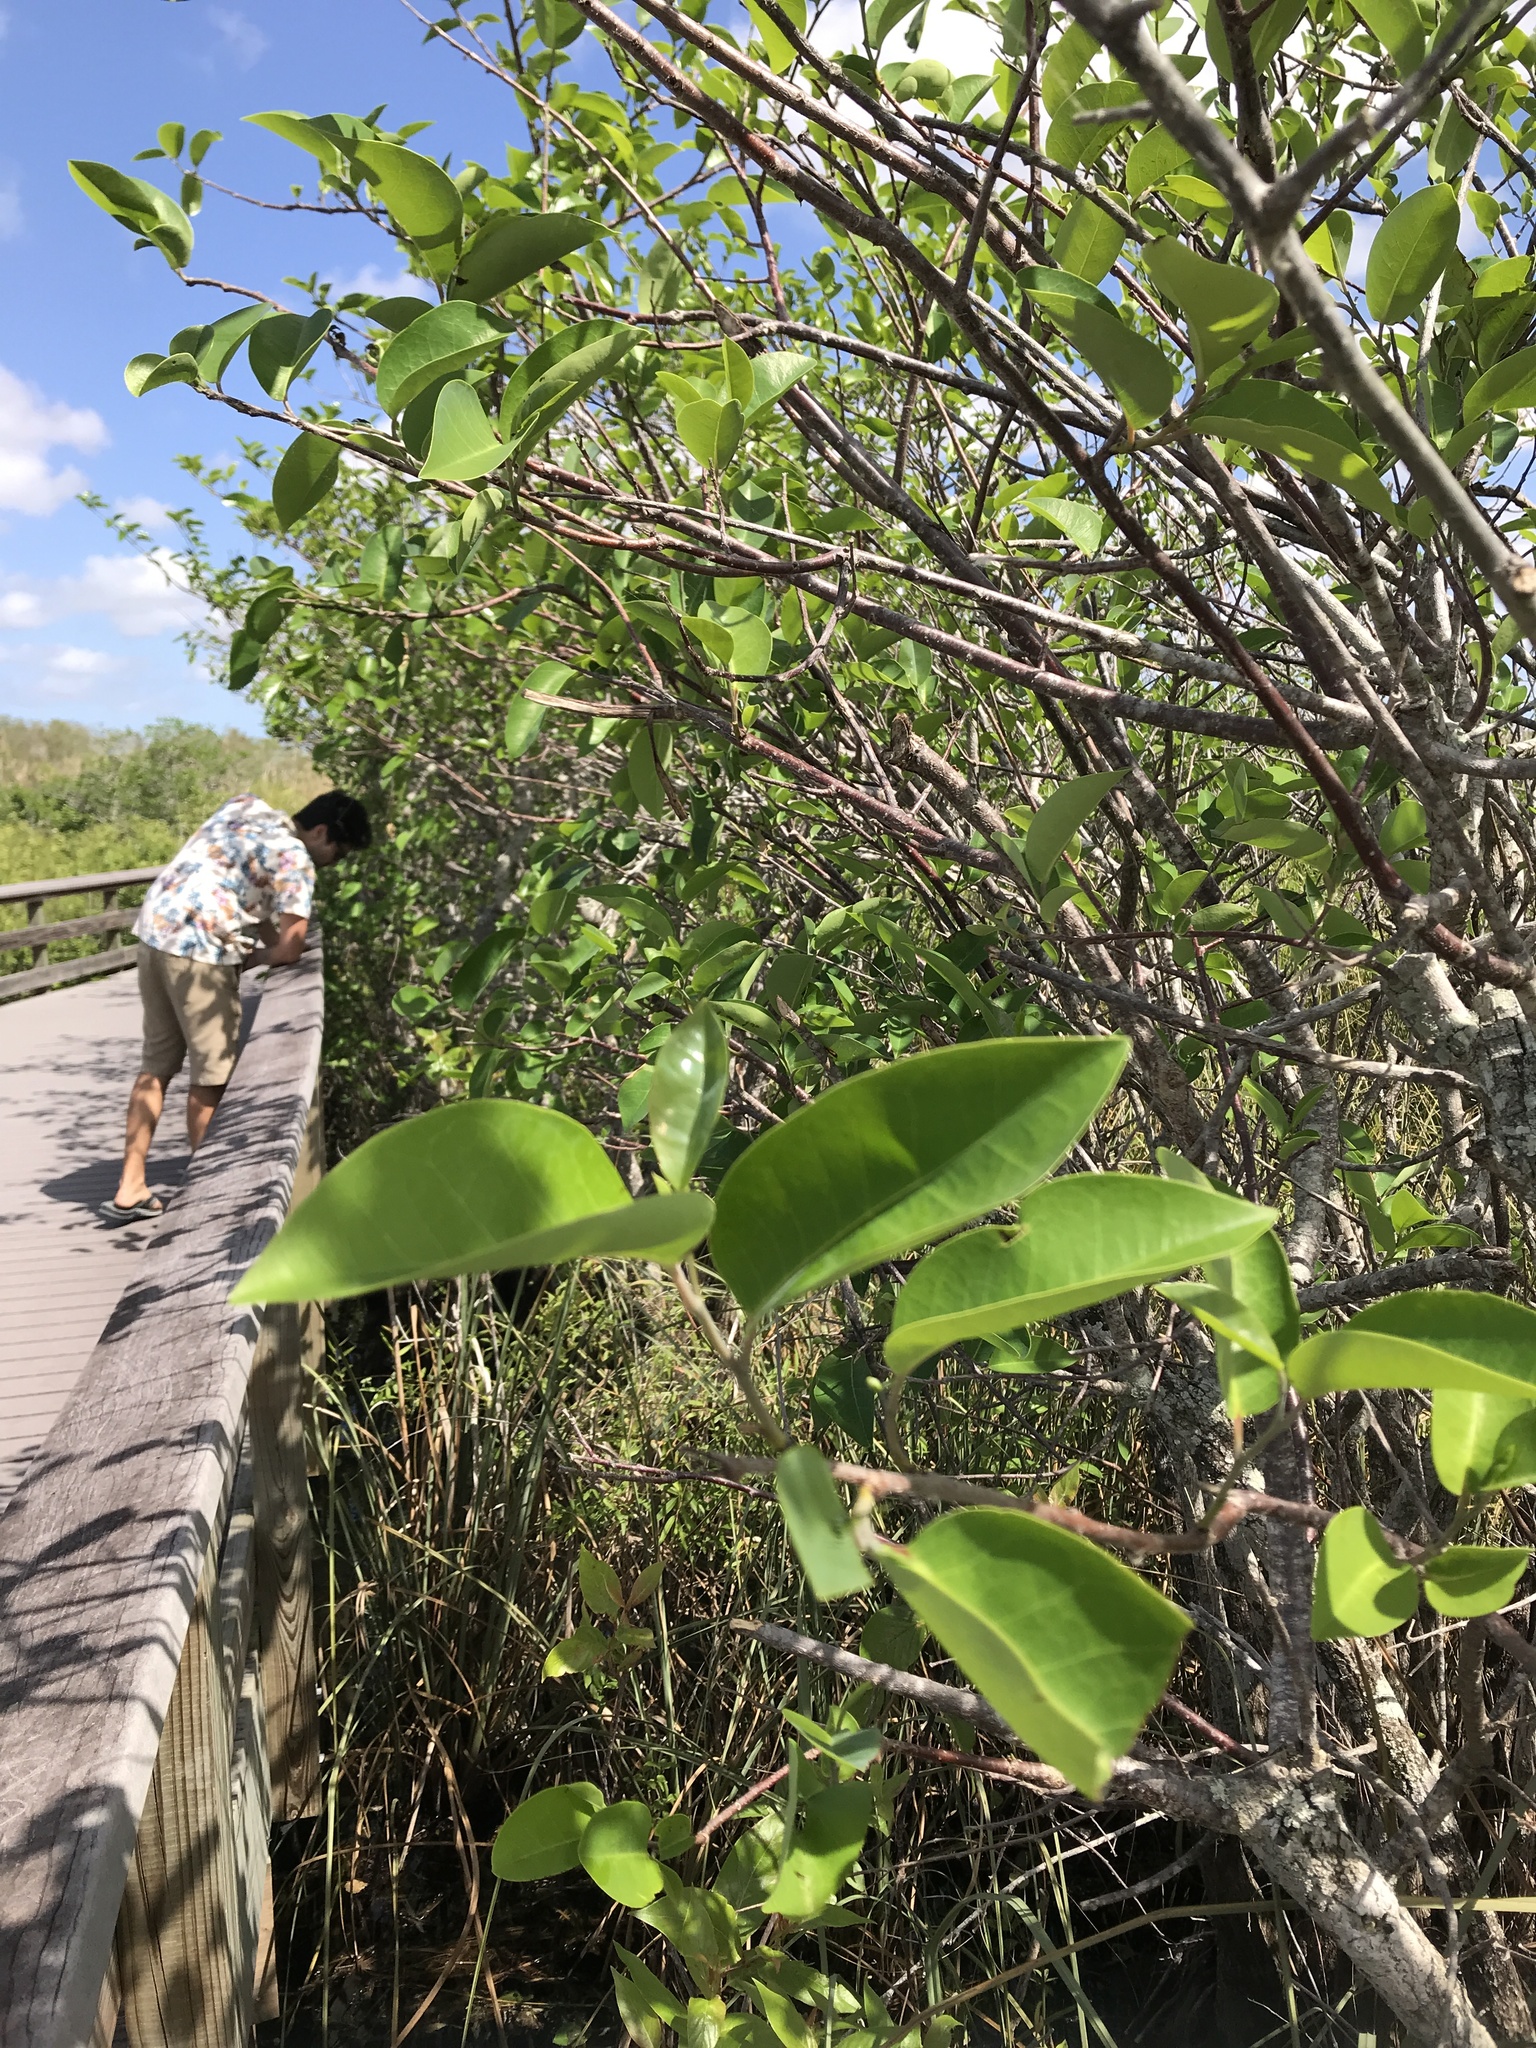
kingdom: Plantae
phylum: Tracheophyta
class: Magnoliopsida
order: Magnoliales
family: Annonaceae
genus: Annona
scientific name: Annona glabra
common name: Monkey apple
